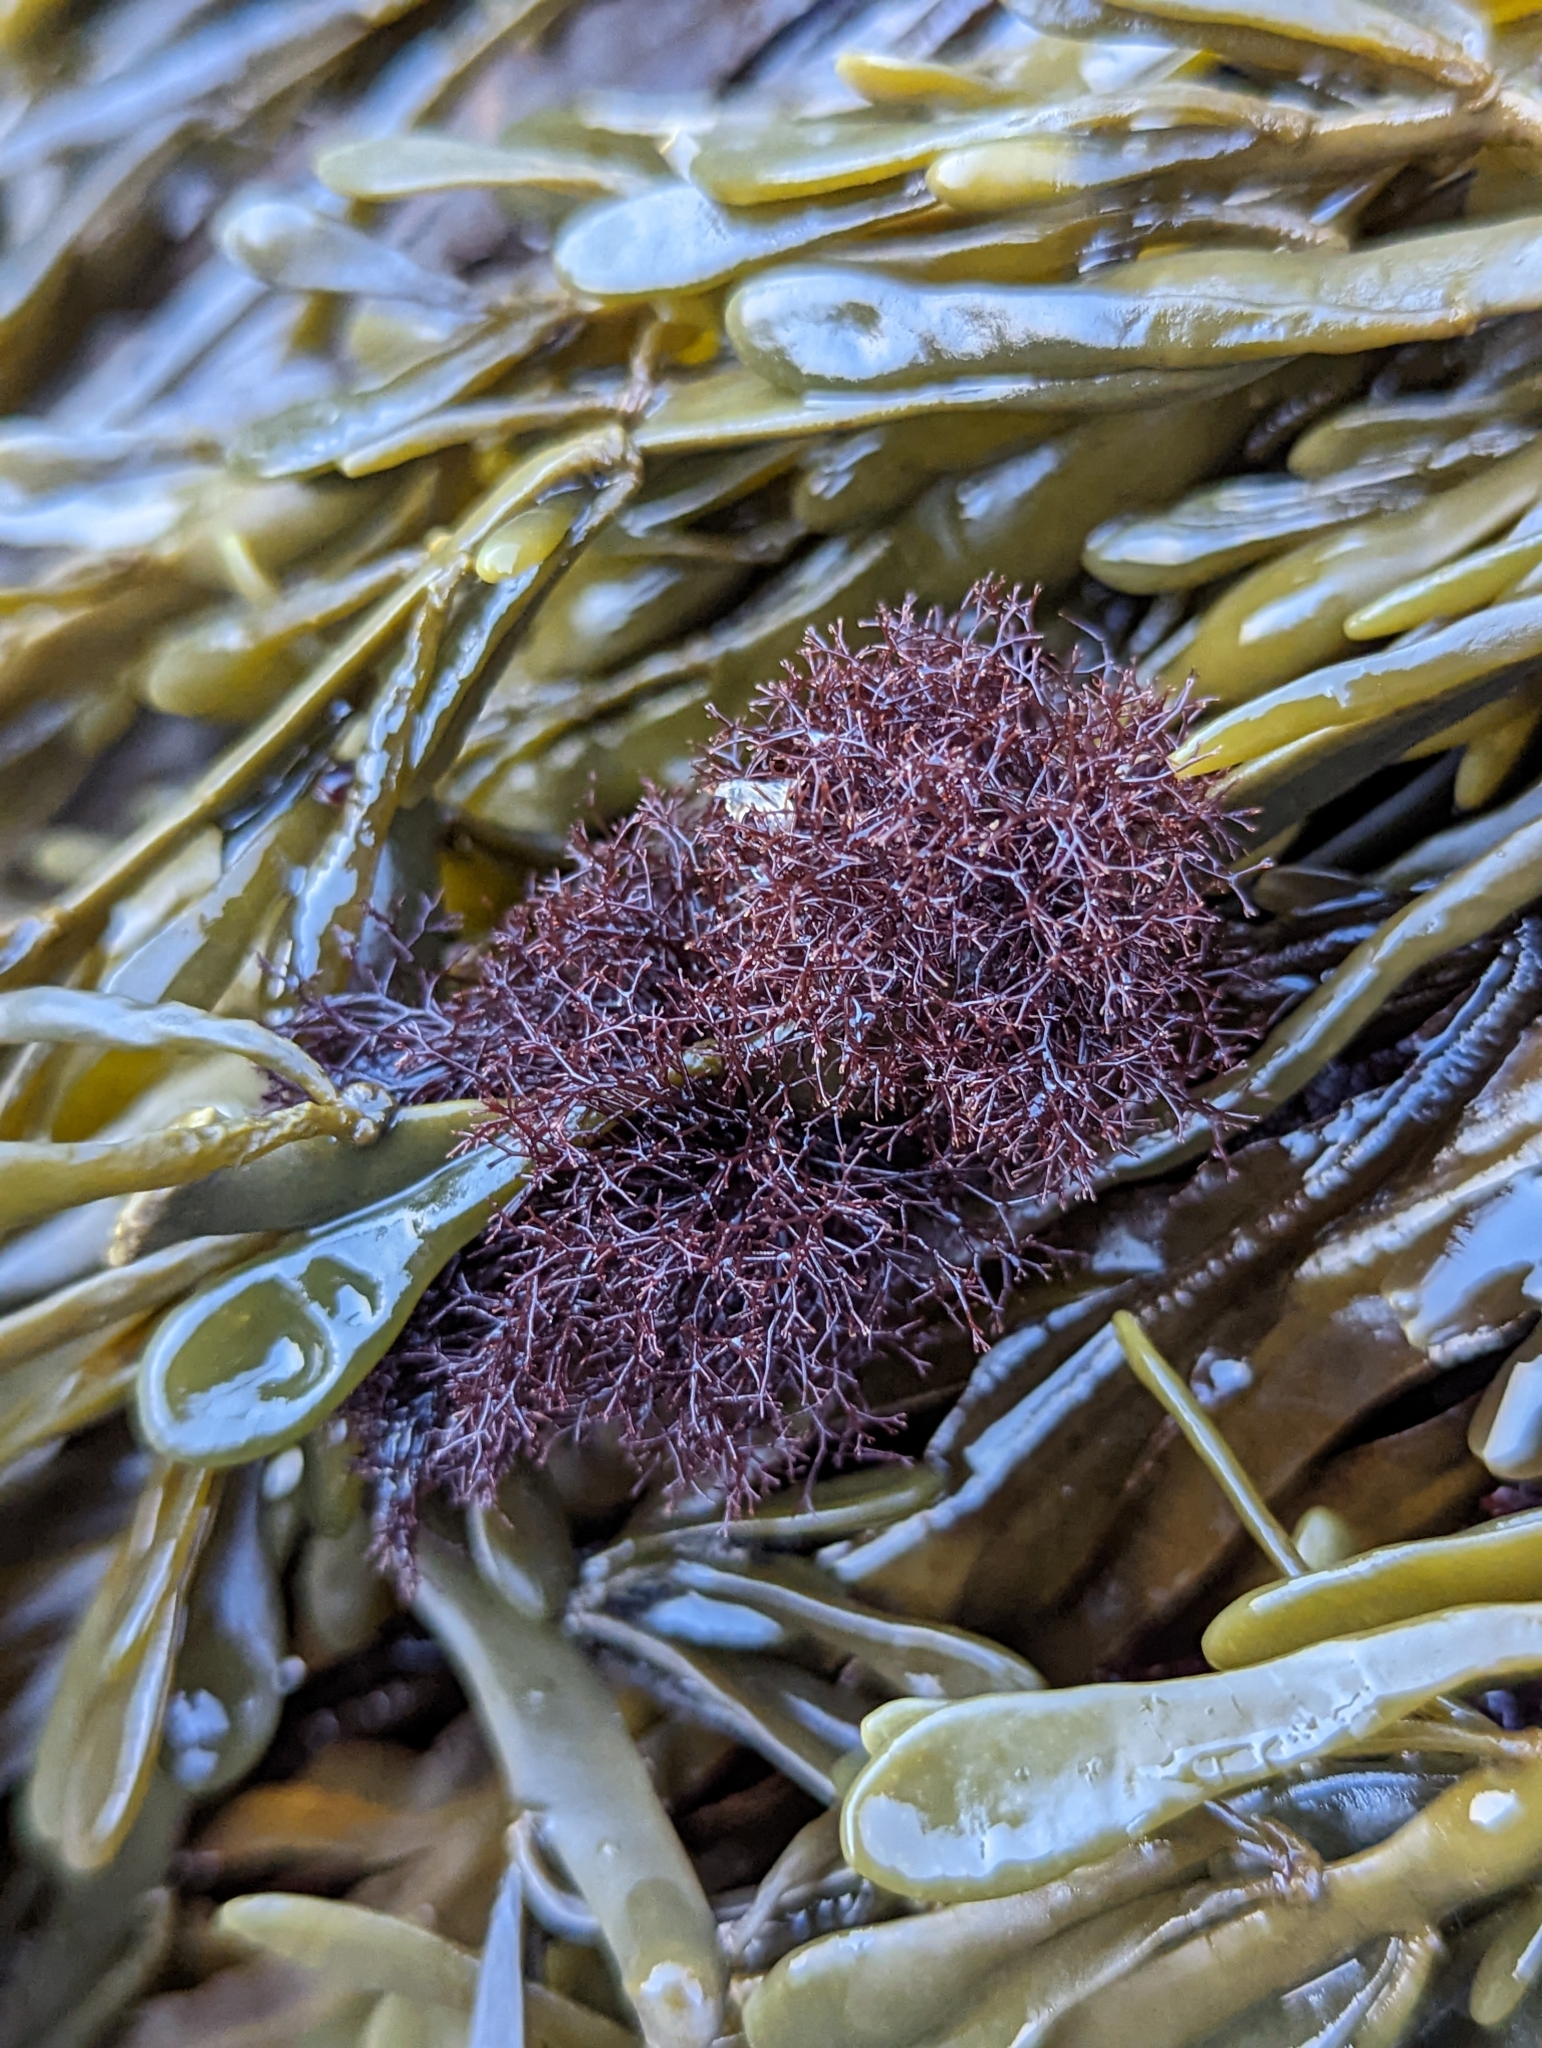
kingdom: Plantae
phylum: Rhodophyta
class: Florideophyceae
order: Ceramiales
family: Rhodomelaceae
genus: Vertebrata
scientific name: Vertebrata lanosa
